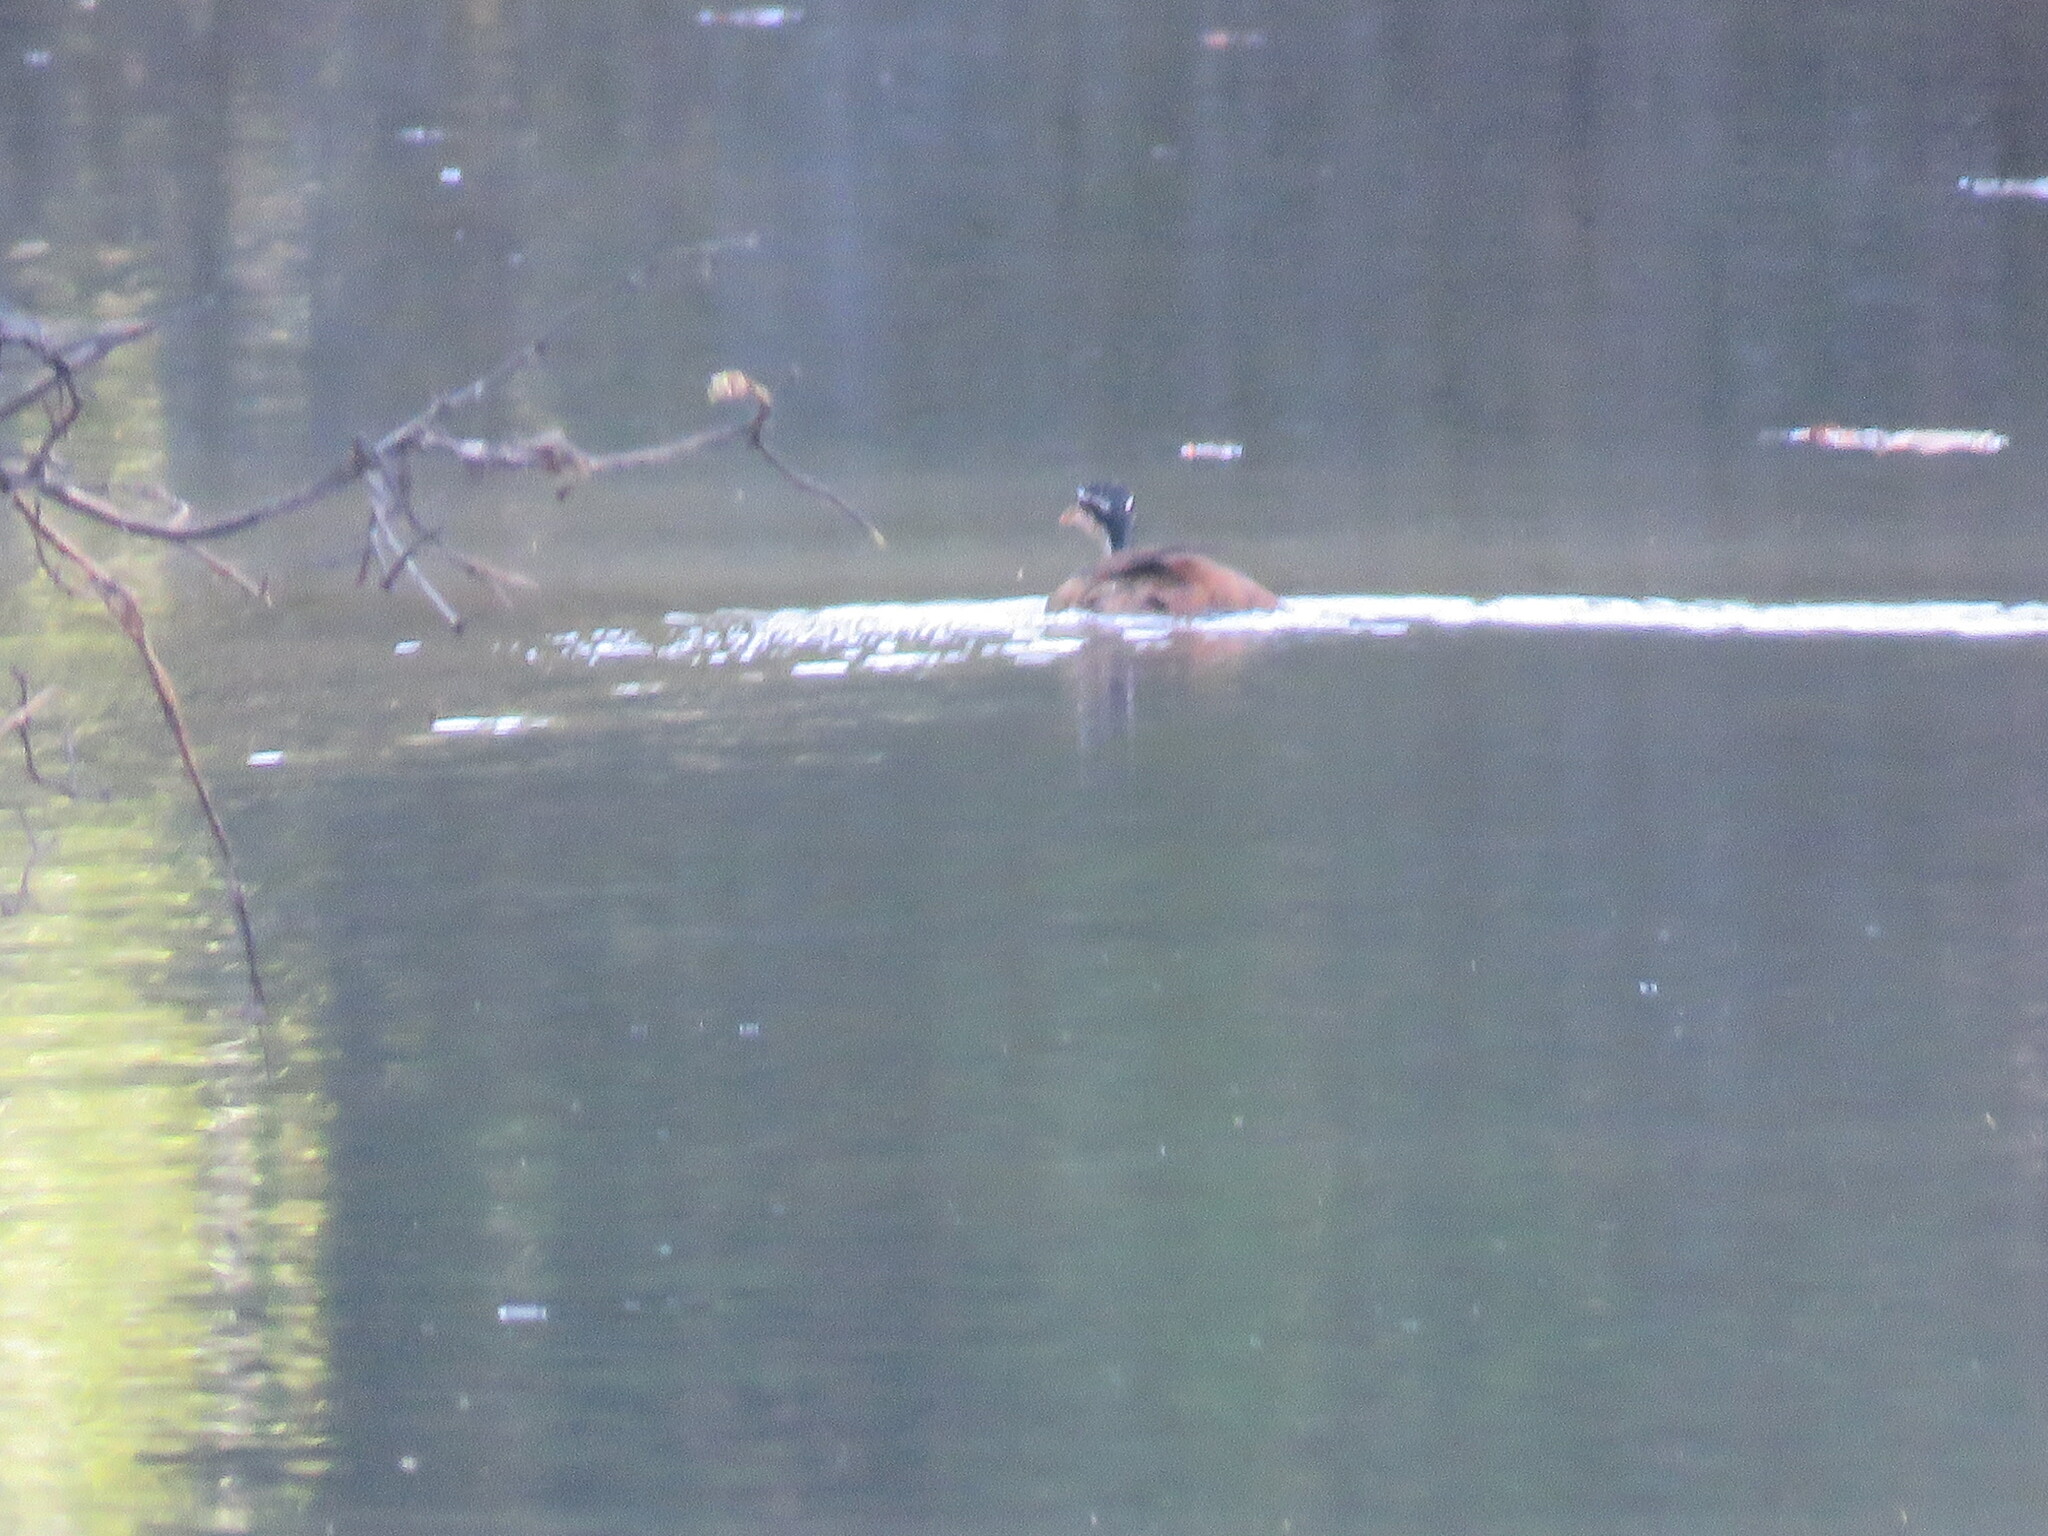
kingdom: Animalia
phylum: Chordata
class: Aves
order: Gruiformes
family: Heliornithidae
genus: Heliornis
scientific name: Heliornis fulica
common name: Sungrebe
